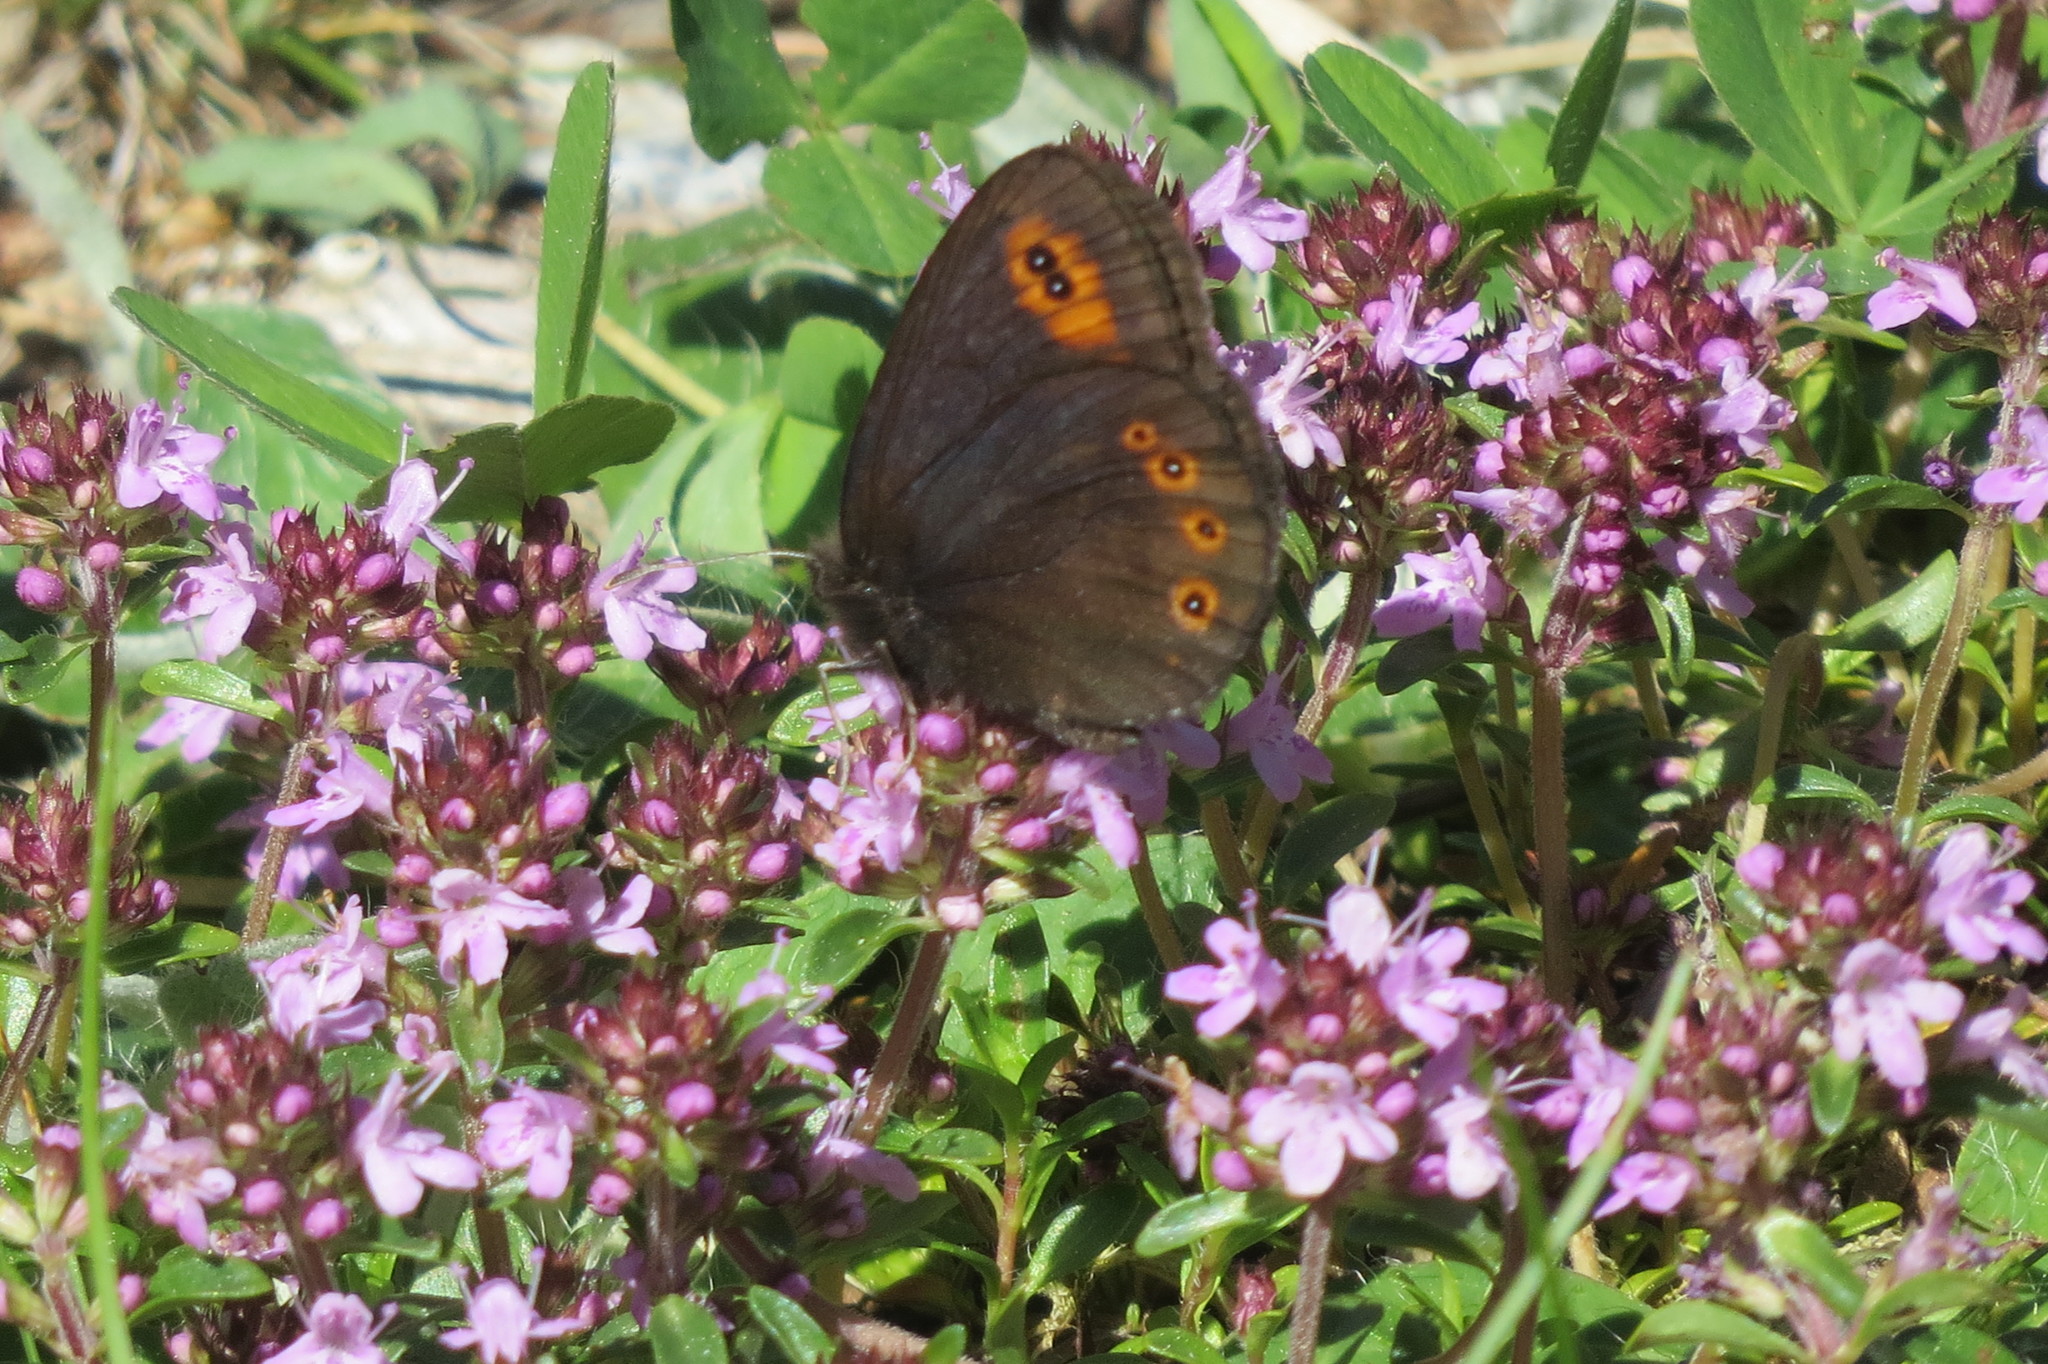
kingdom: Animalia
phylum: Arthropoda
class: Insecta
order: Lepidoptera
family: Nymphalidae
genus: Erebia
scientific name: Erebia medusa
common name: Woodland ringlet
